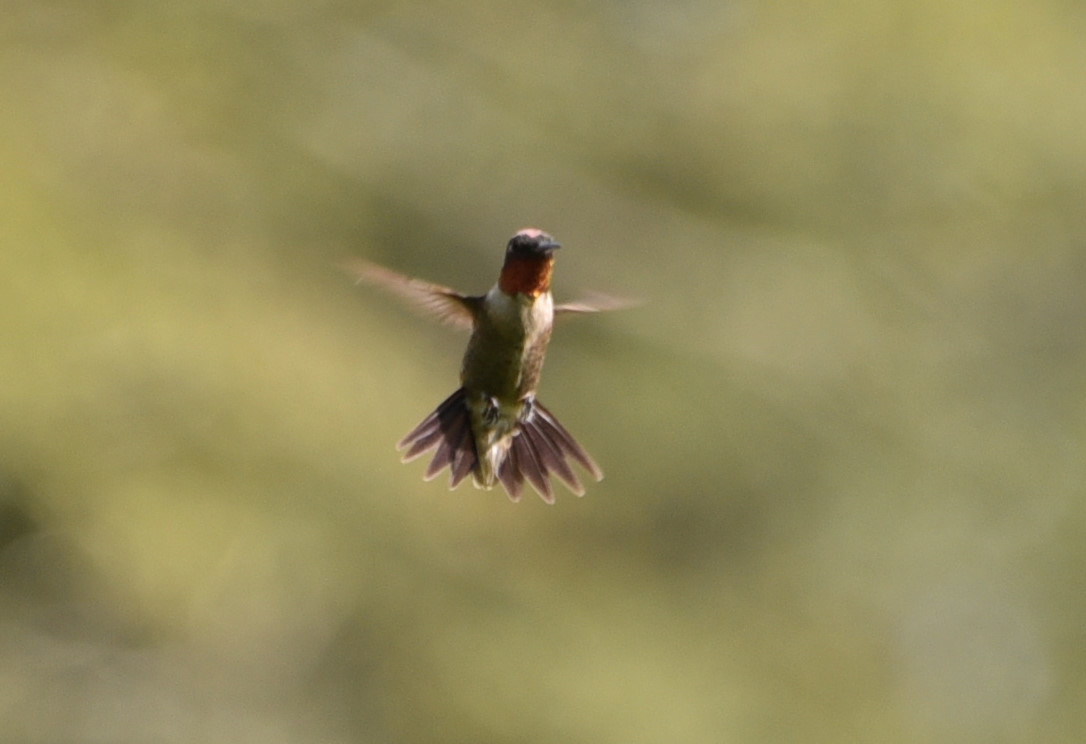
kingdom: Animalia
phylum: Chordata
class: Aves
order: Apodiformes
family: Trochilidae
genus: Archilochus
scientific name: Archilochus colubris
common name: Ruby-throated hummingbird
